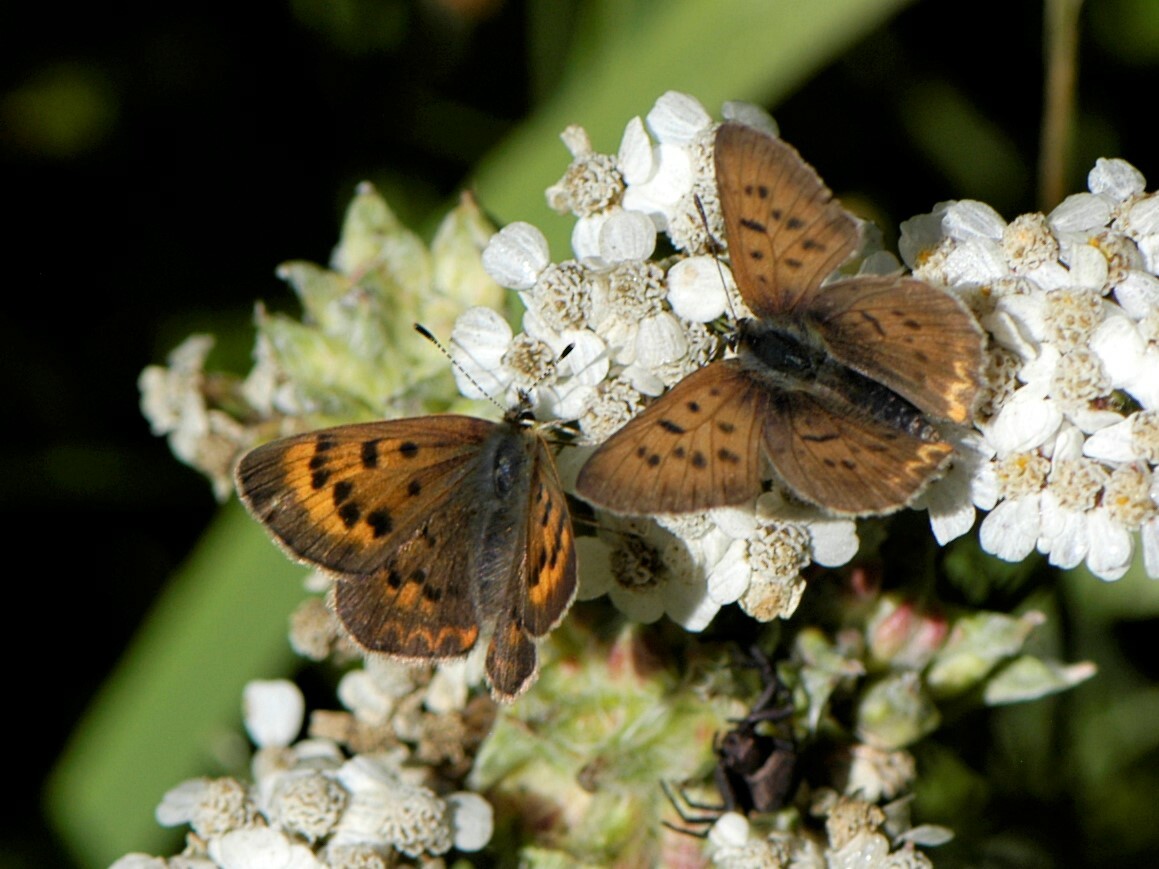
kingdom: Animalia
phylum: Arthropoda
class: Insecta
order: Lepidoptera
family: Lycaenidae
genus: Tharsalea
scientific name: Tharsalea dorcas
